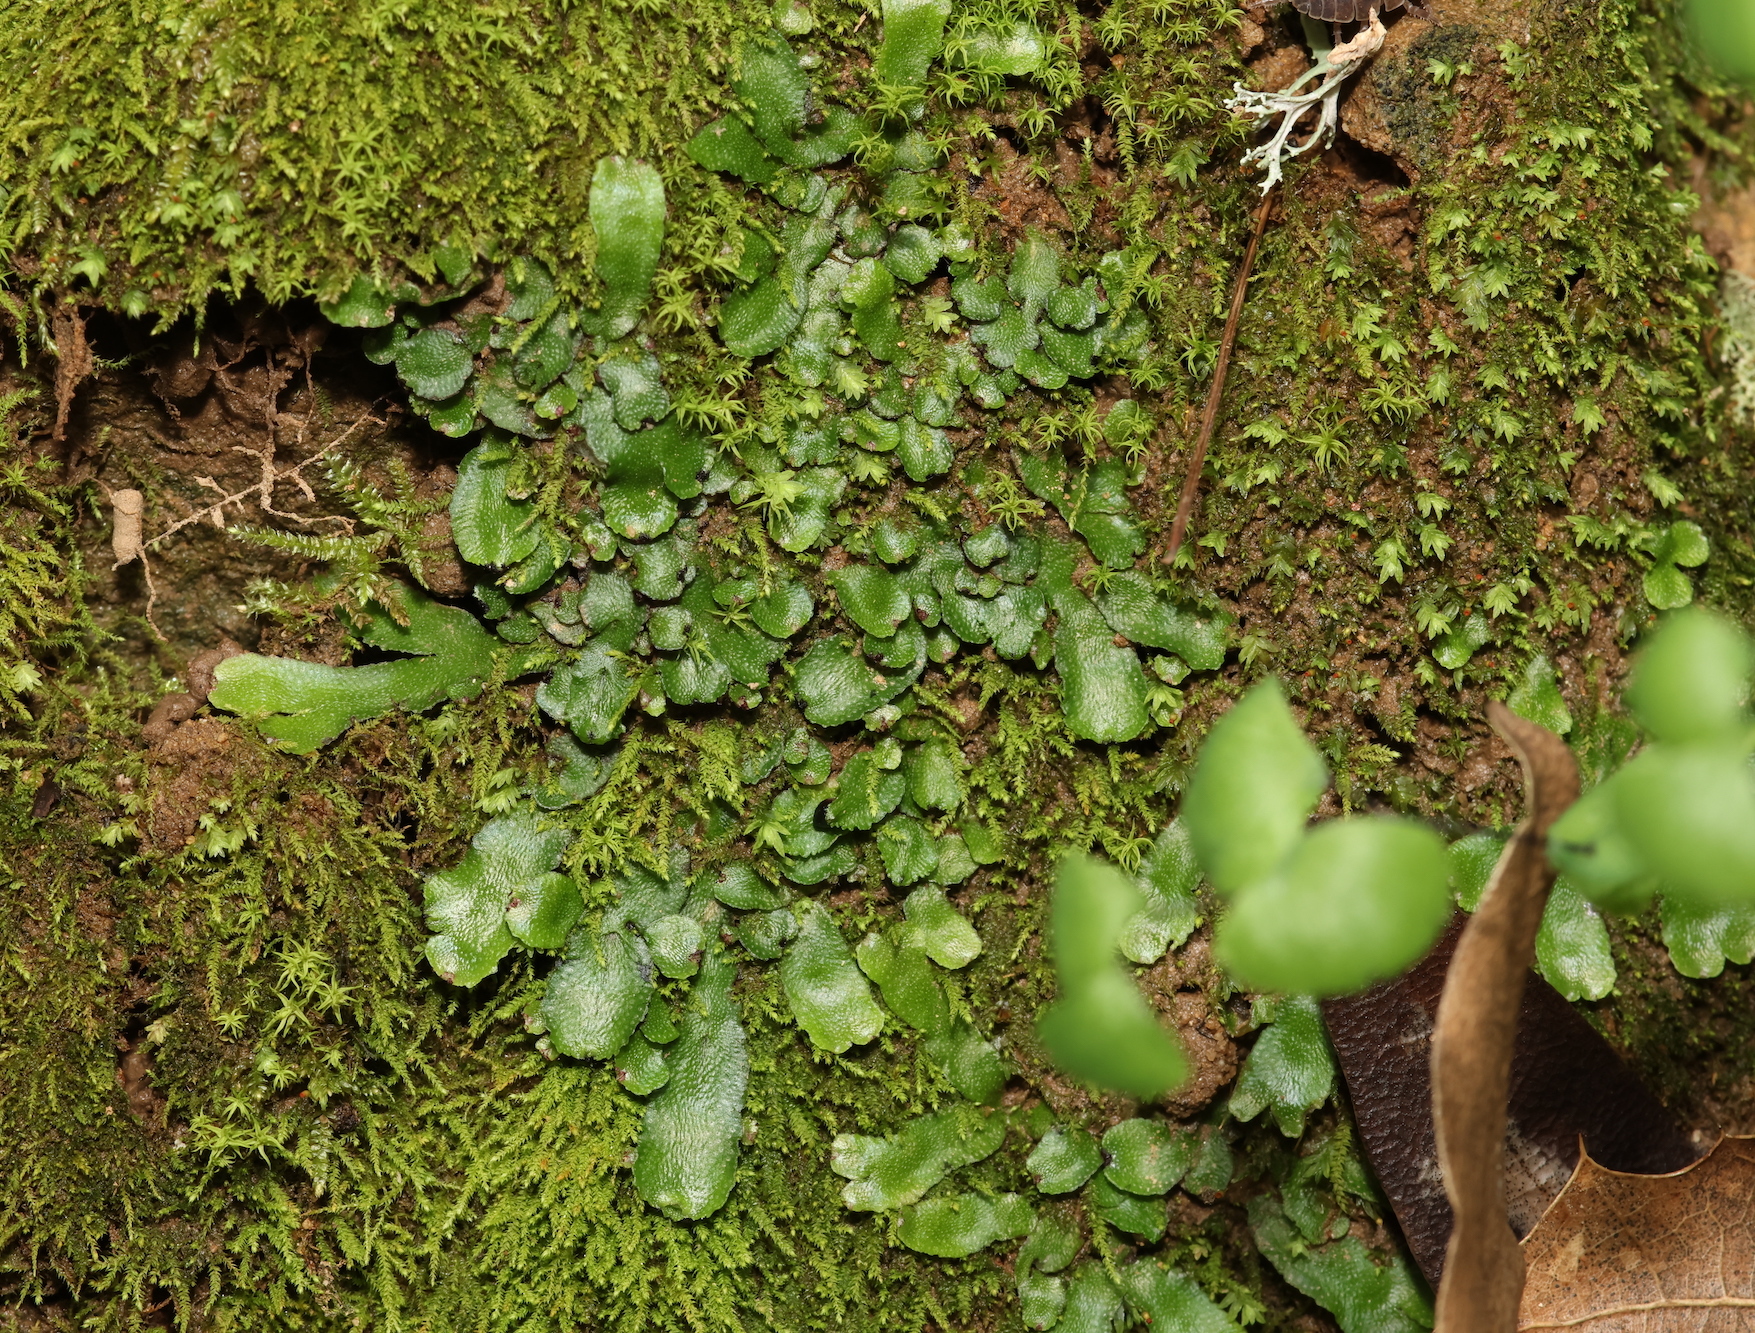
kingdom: Plantae
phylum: Marchantiophyta
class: Marchantiopsida
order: Marchantiales
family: Targioniaceae
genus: Targionia
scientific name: Targionia hypophylla
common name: Orobus-seed liverwort
